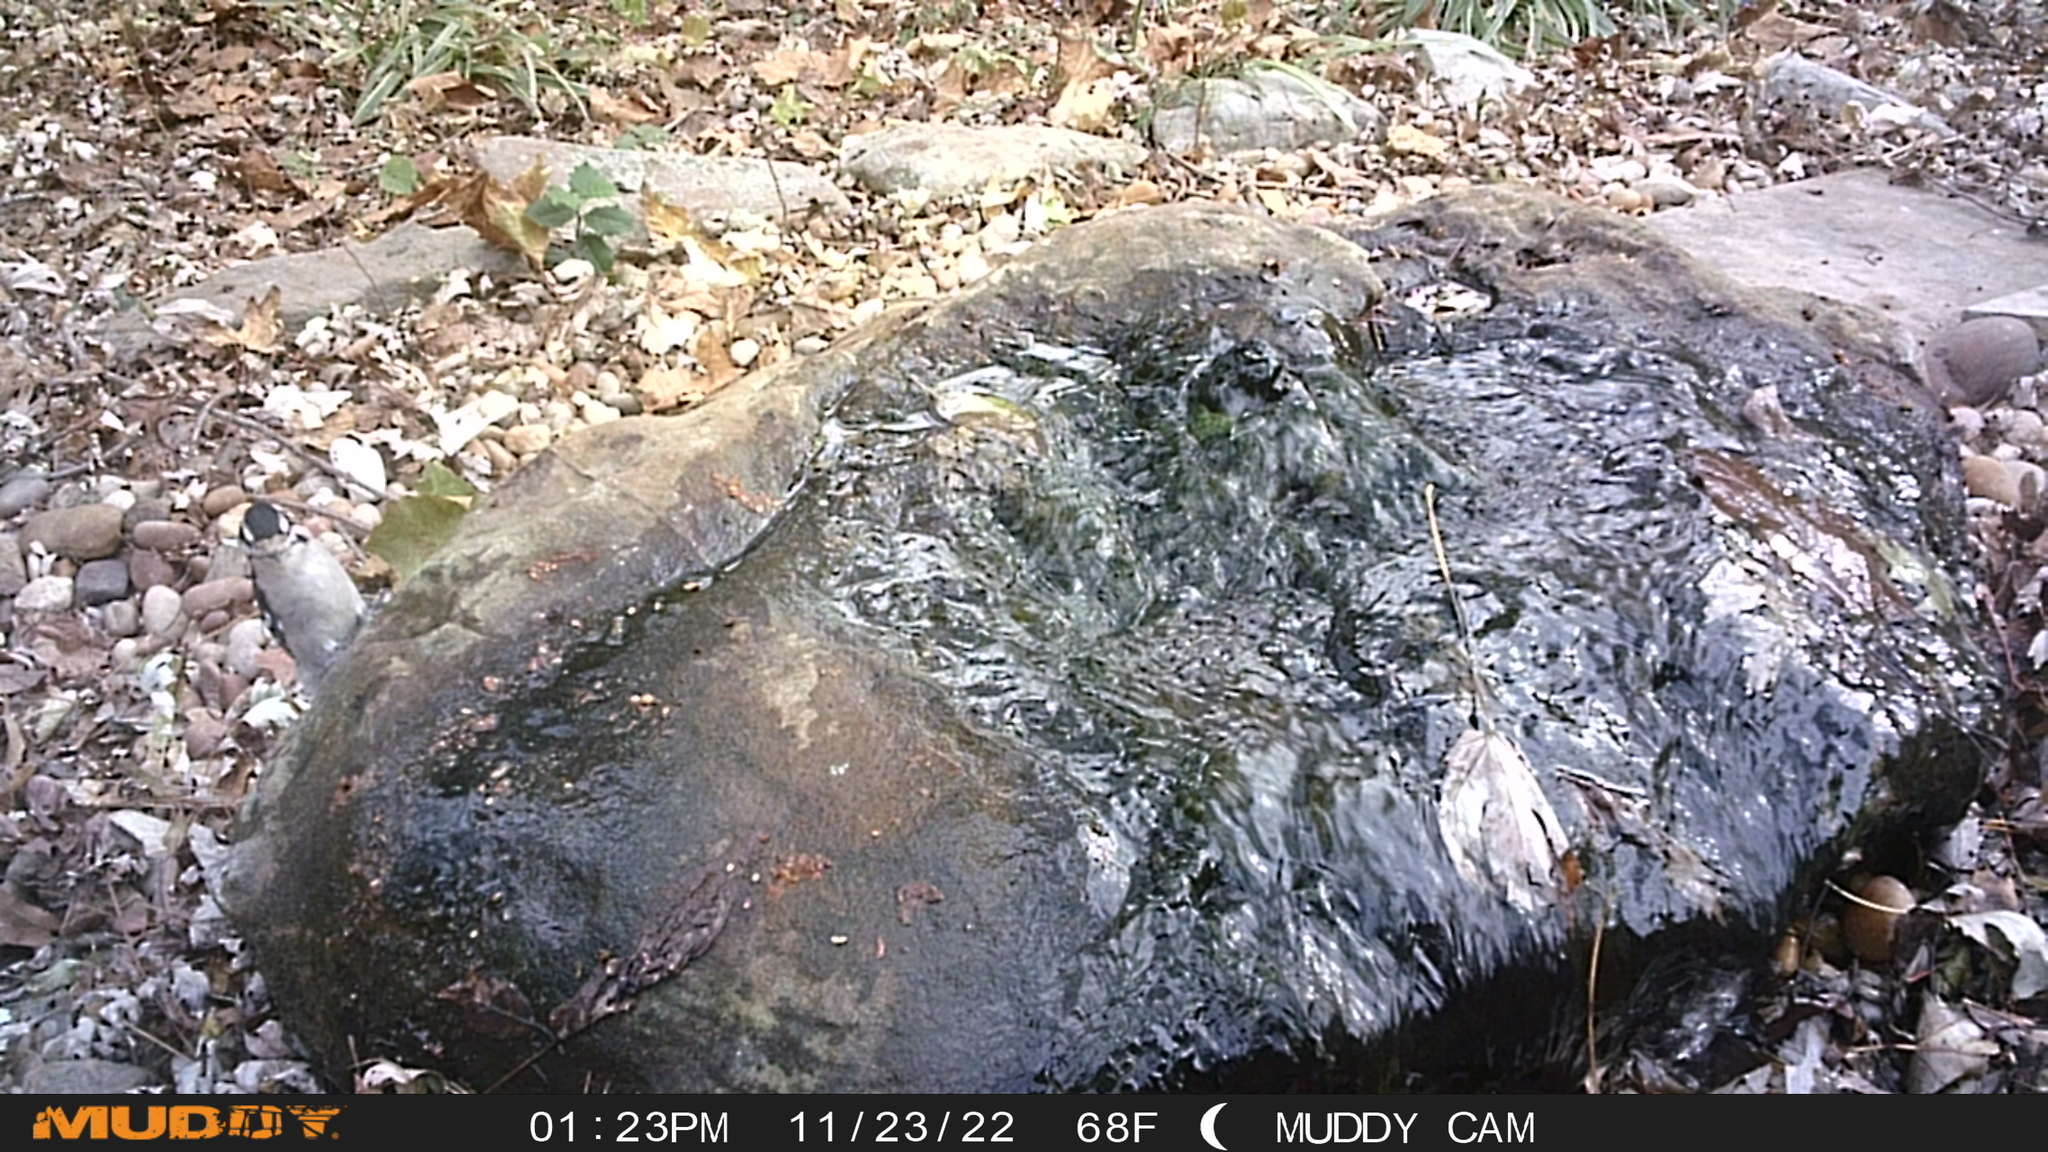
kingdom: Animalia
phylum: Chordata
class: Aves
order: Piciformes
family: Picidae
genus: Dryobates
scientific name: Dryobates pubescens
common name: Downy woodpecker
